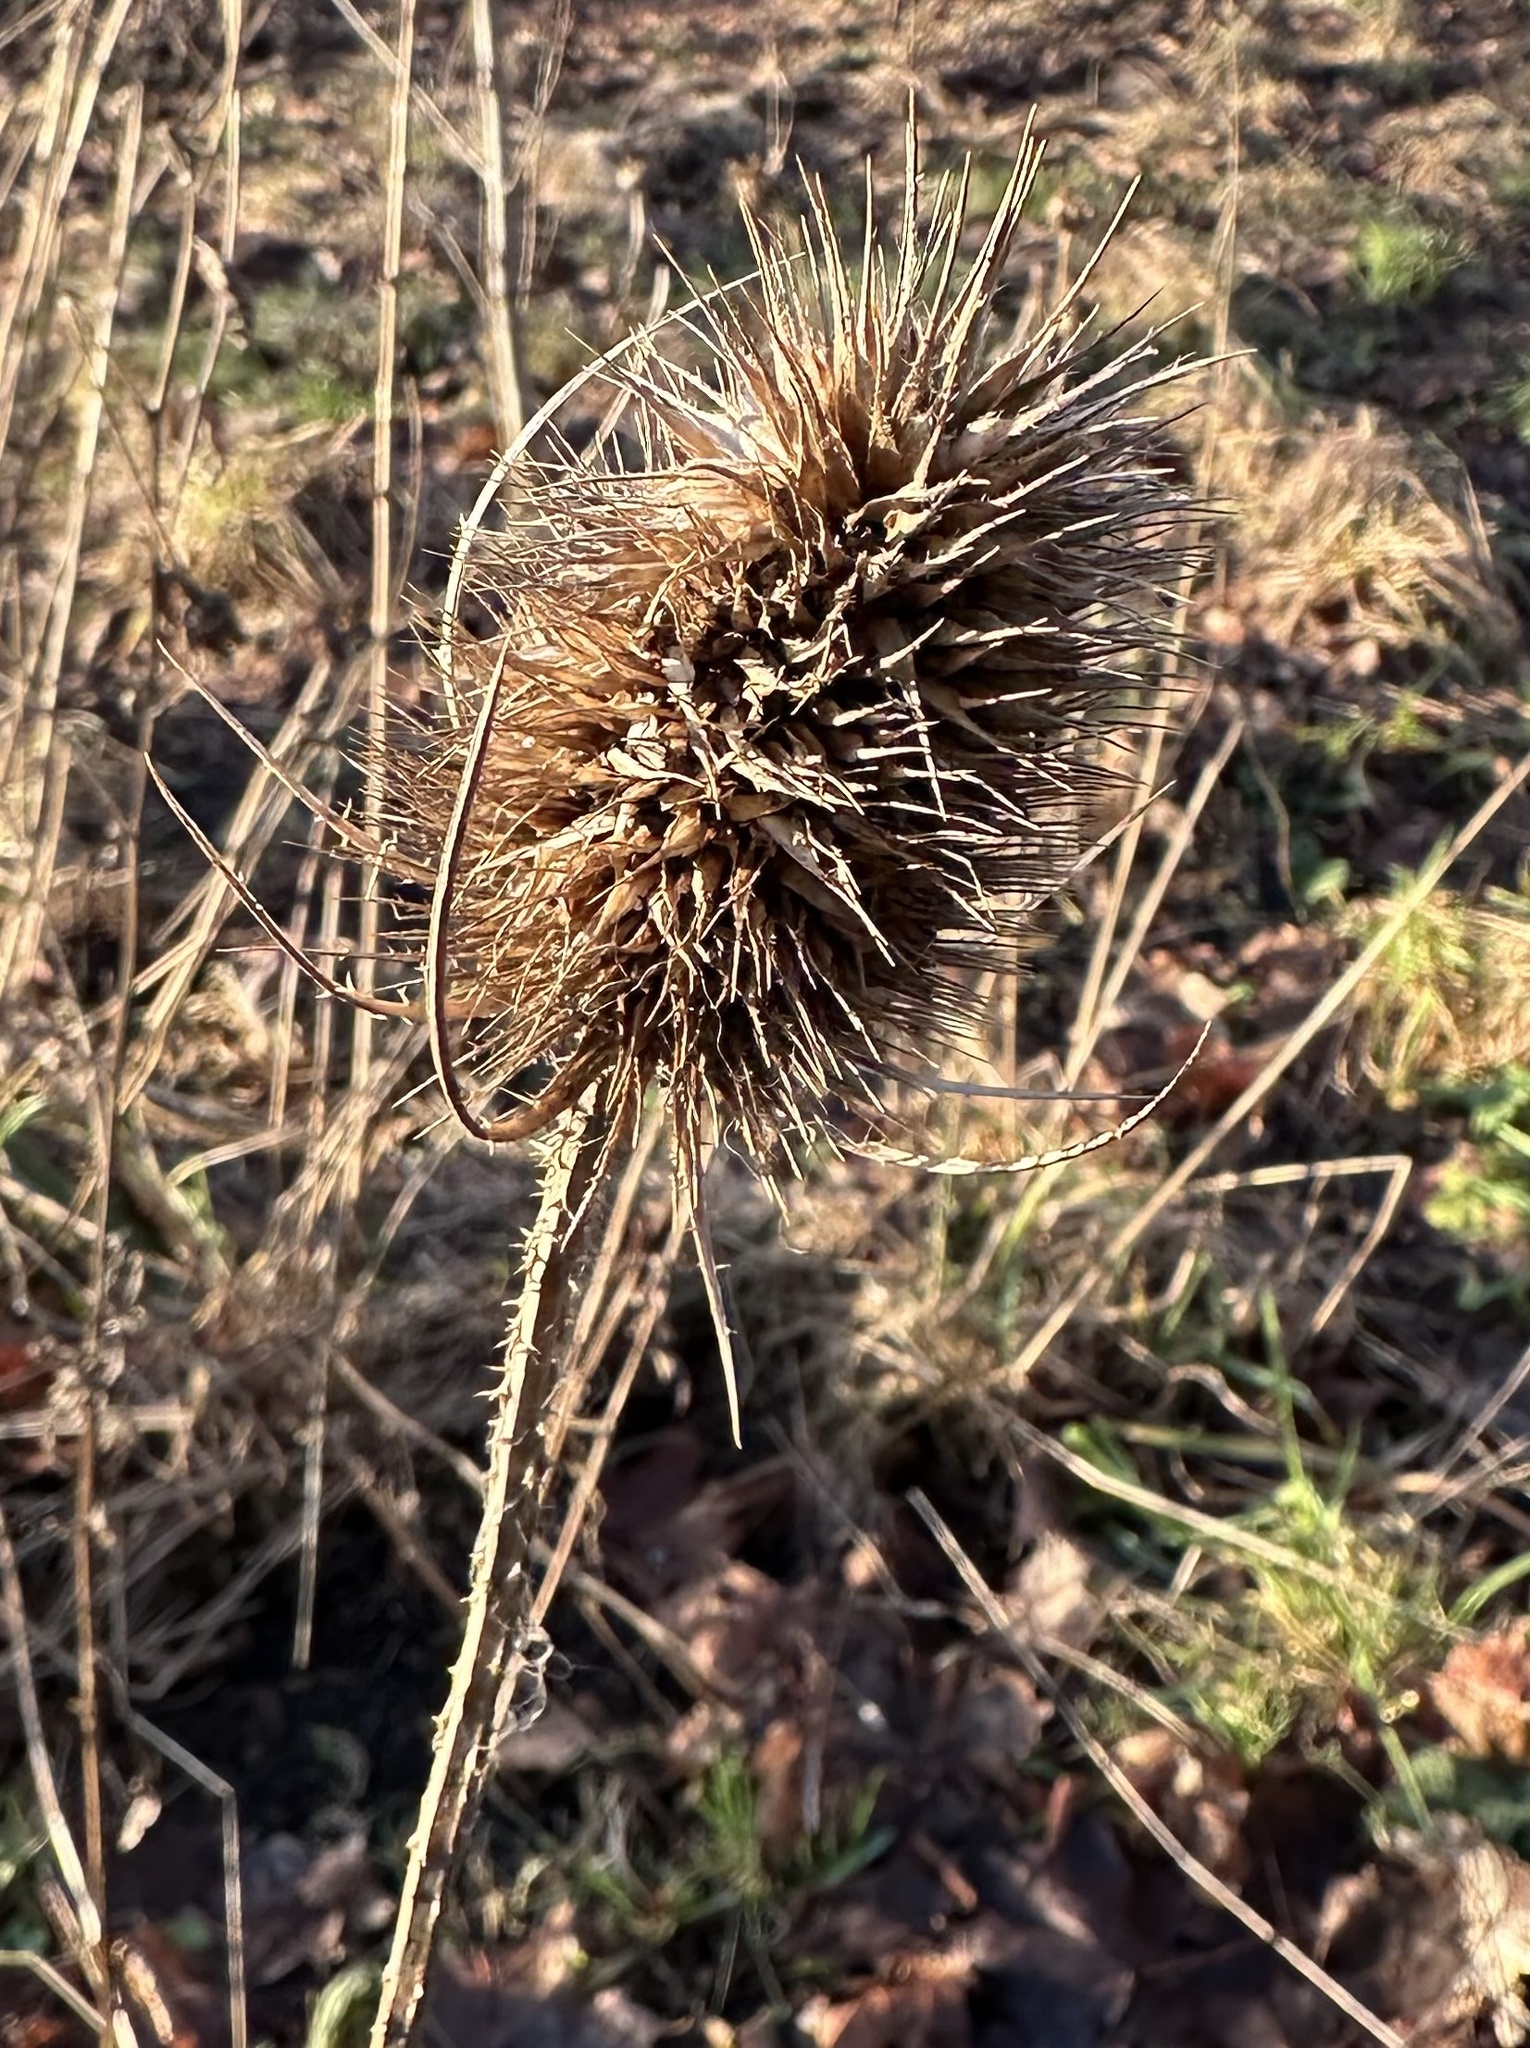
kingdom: Plantae
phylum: Tracheophyta
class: Magnoliopsida
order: Dipsacales
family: Caprifoliaceae
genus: Dipsacus
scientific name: Dipsacus fullonum
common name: Teasel
